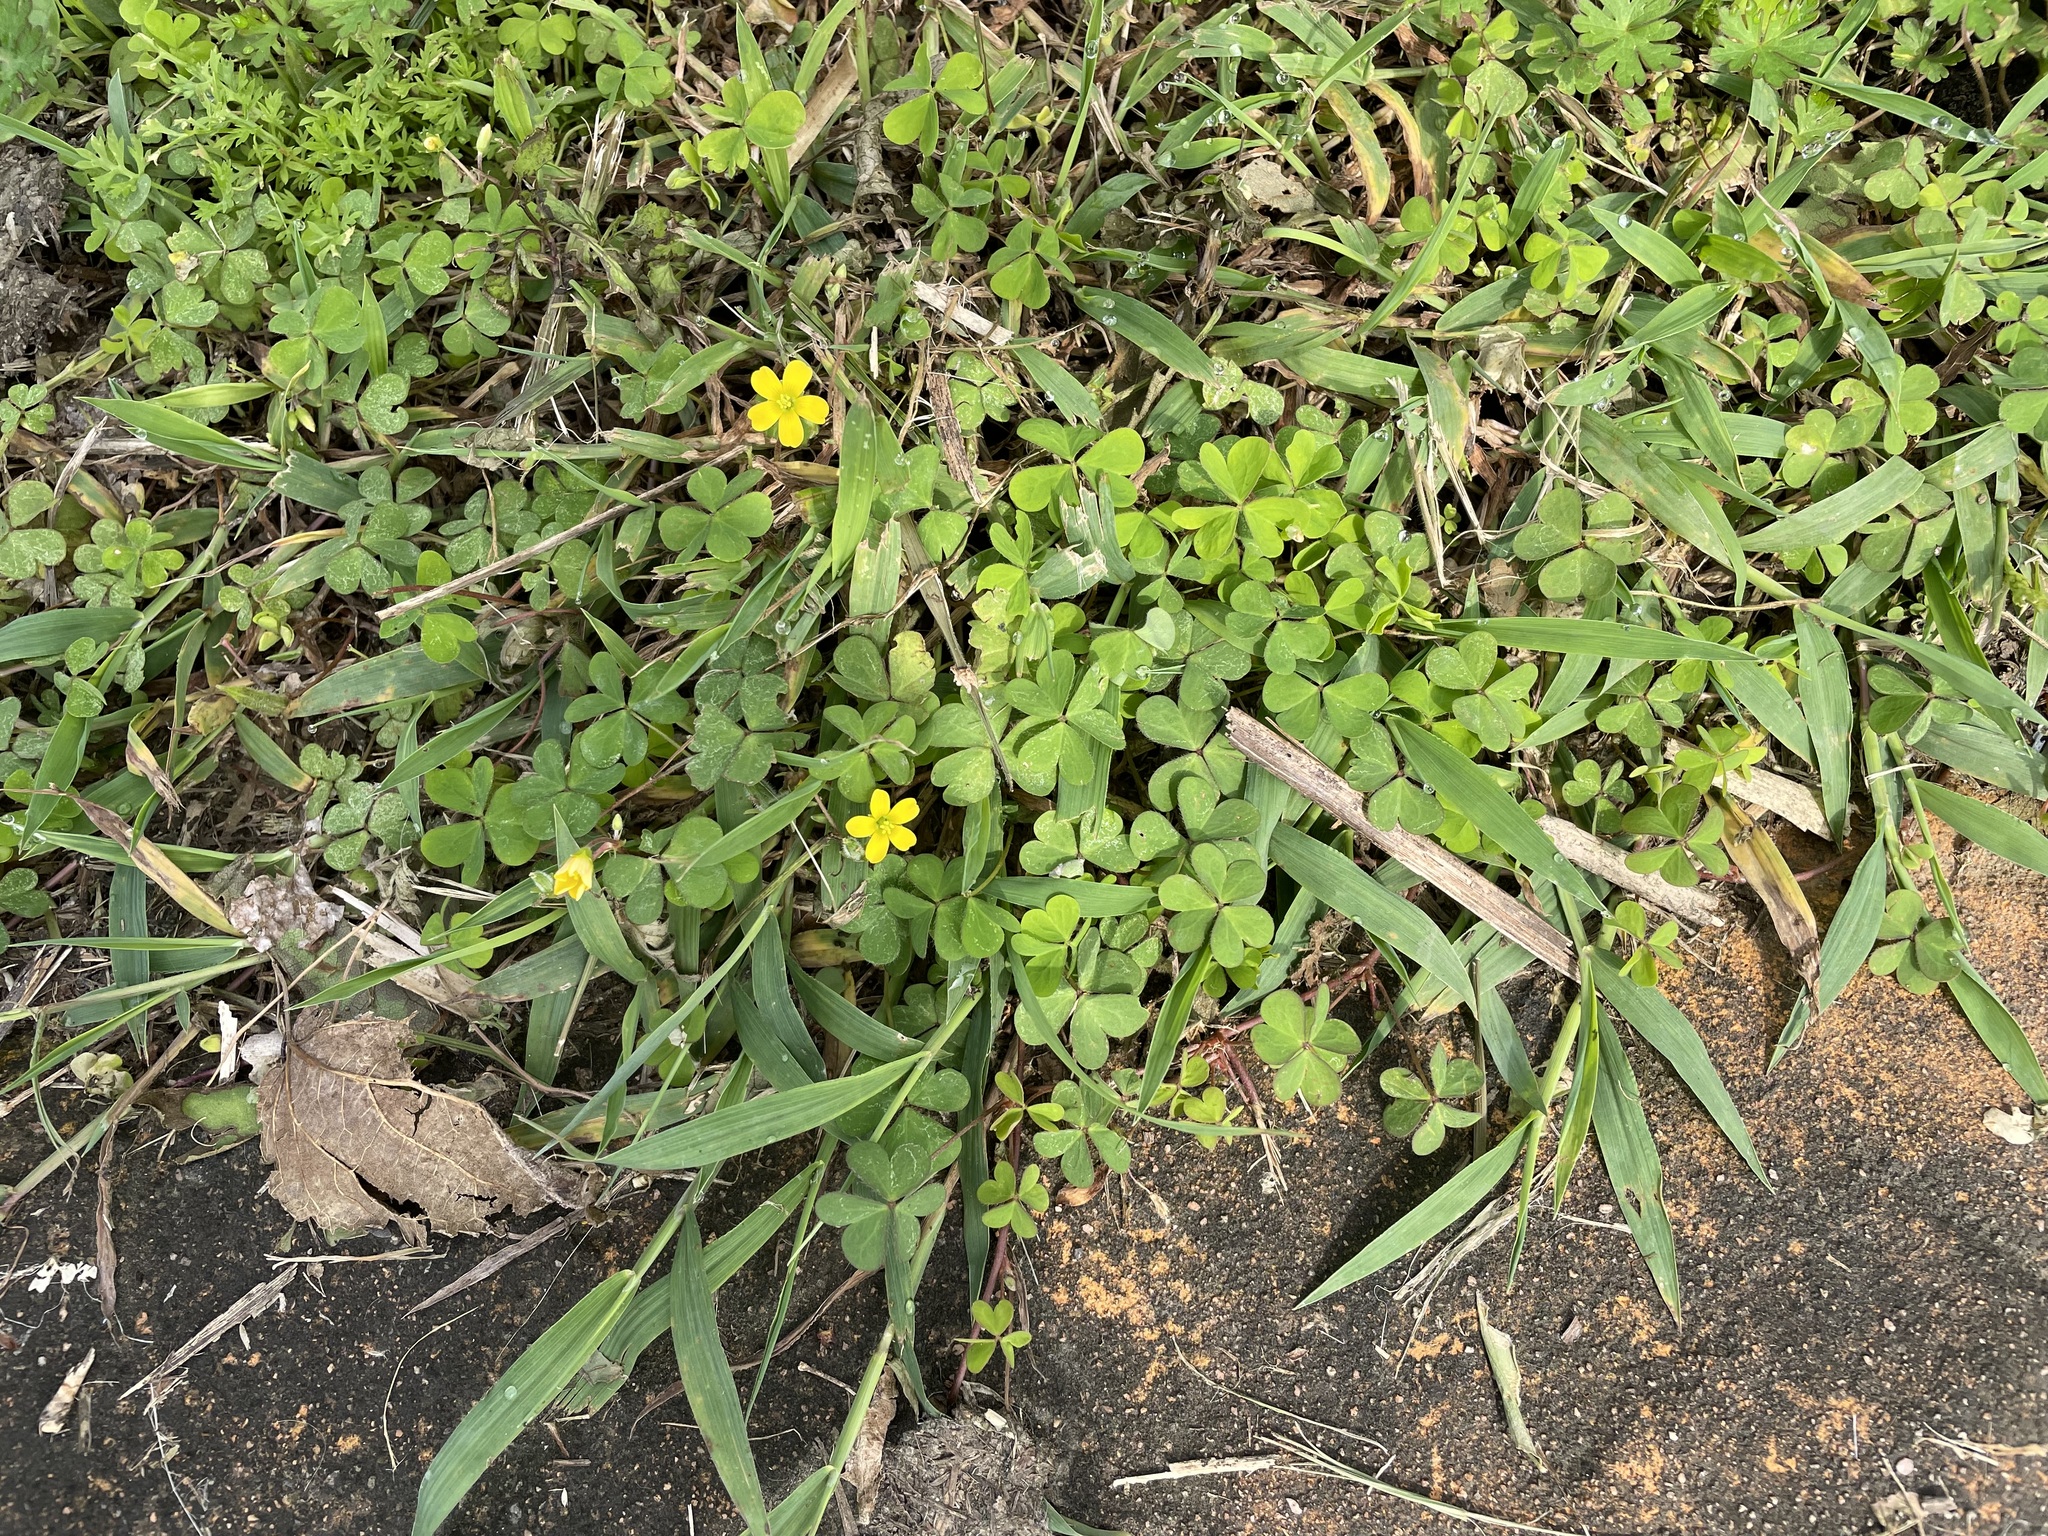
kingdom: Plantae
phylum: Tracheophyta
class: Magnoliopsida
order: Oxalidales
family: Oxalidaceae
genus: Oxalis
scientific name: Oxalis corniculata
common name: Procumbent yellow-sorrel
